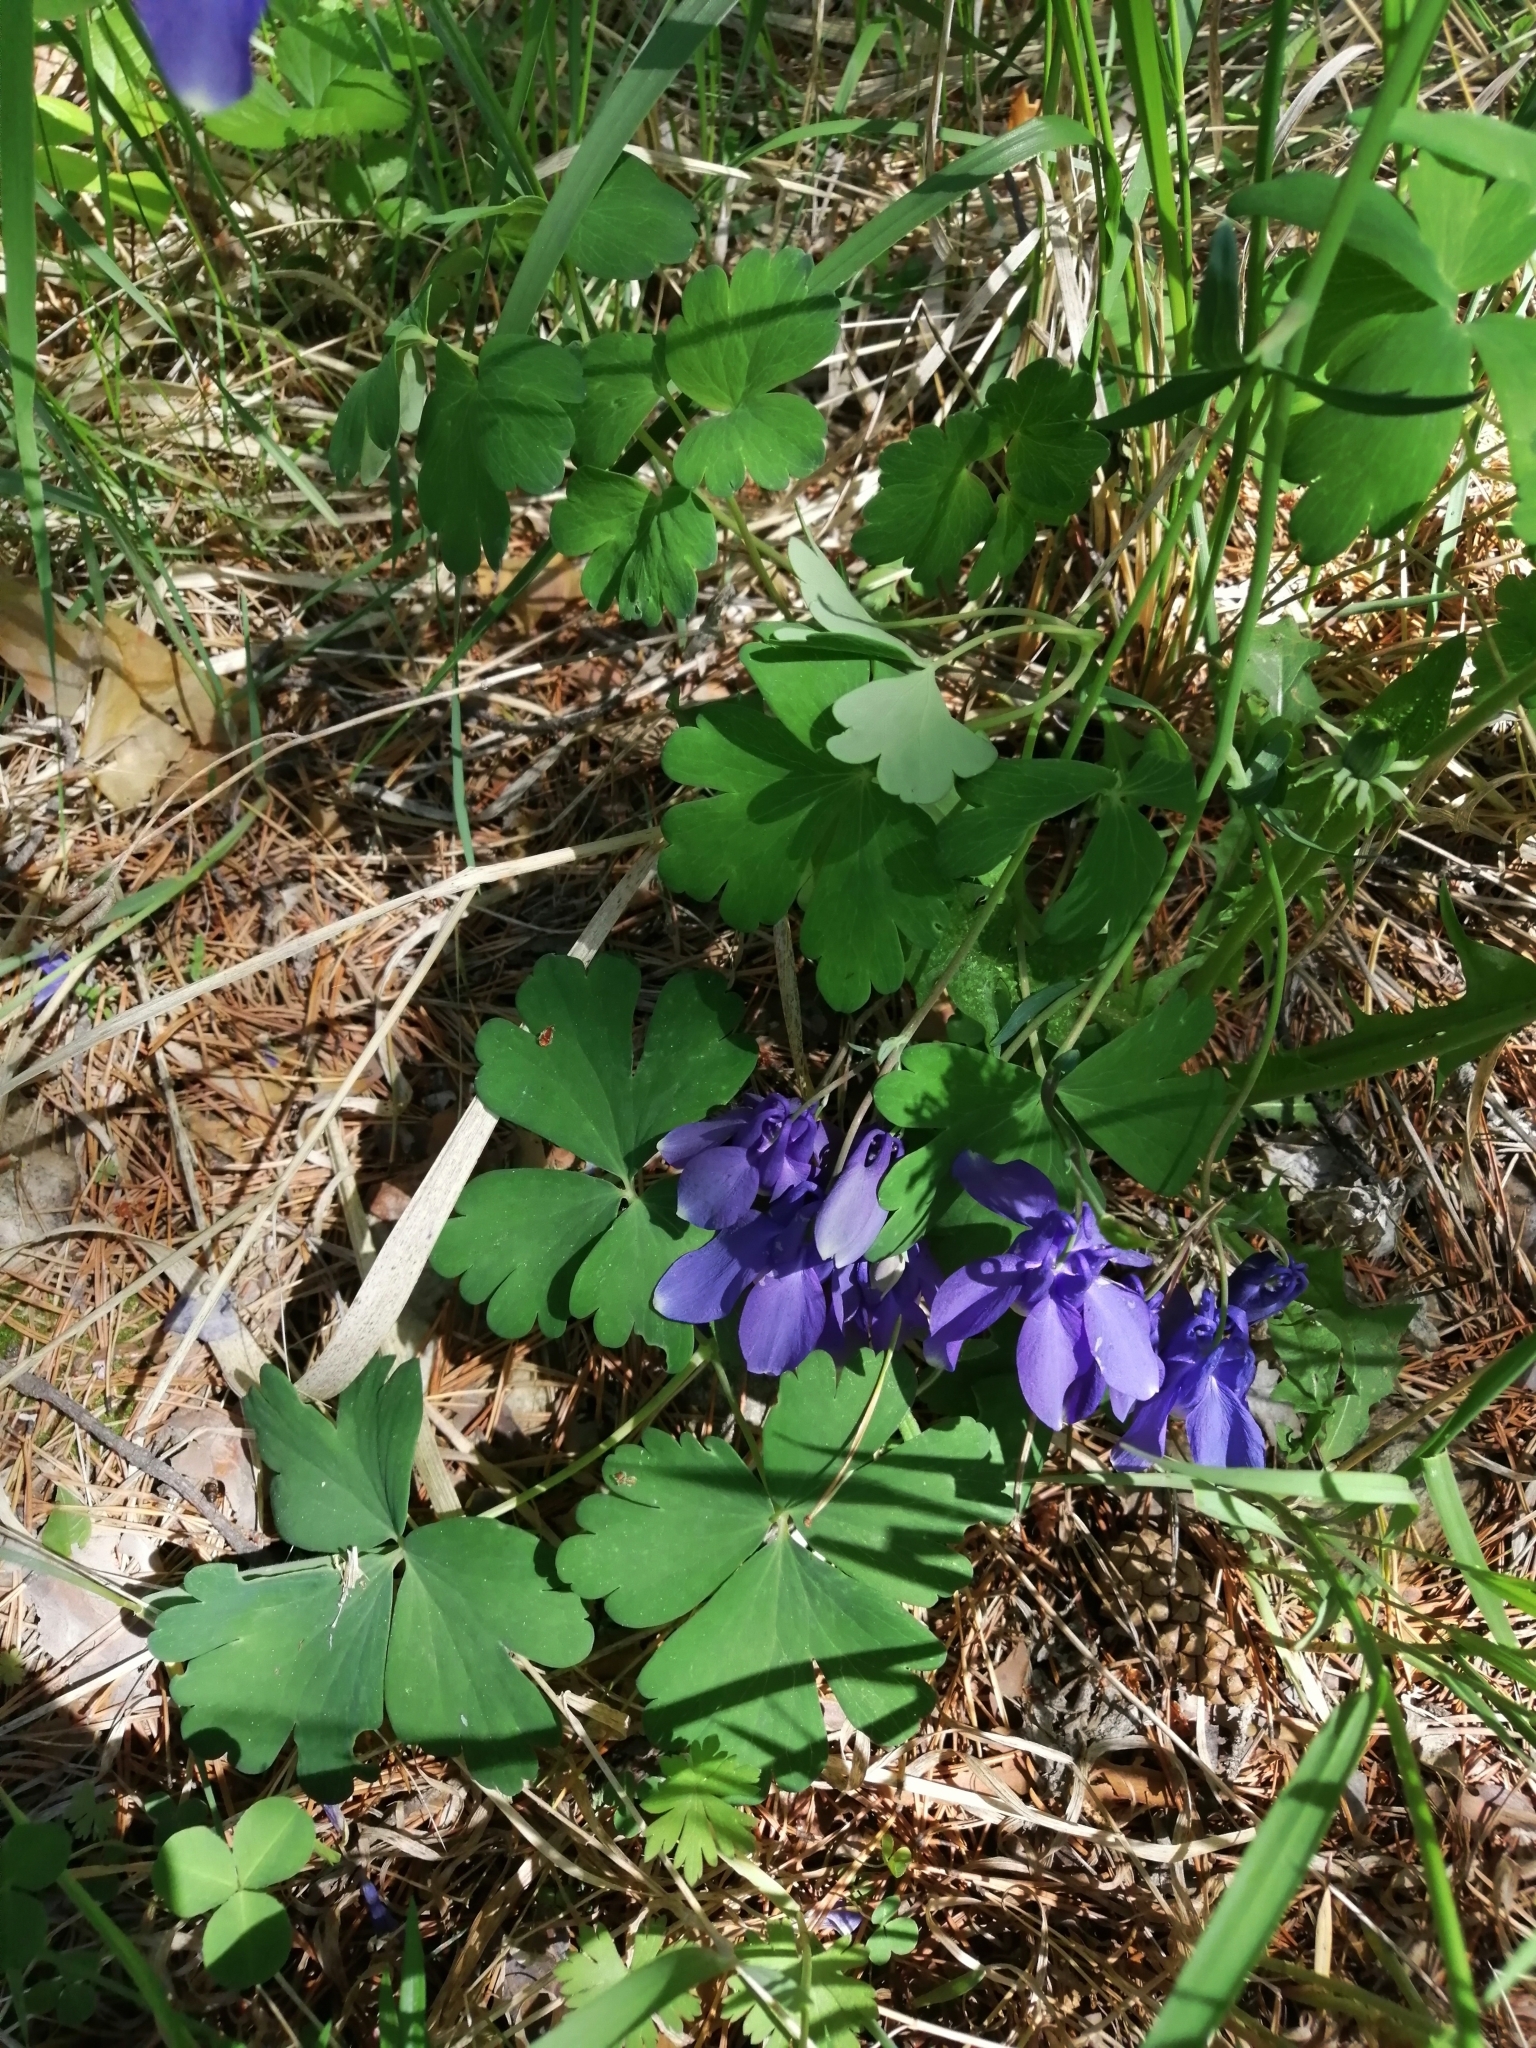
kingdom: Plantae
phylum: Tracheophyta
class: Magnoliopsida
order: Ranunculales
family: Ranunculaceae
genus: Aquilegia
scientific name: Aquilegia sibirica
